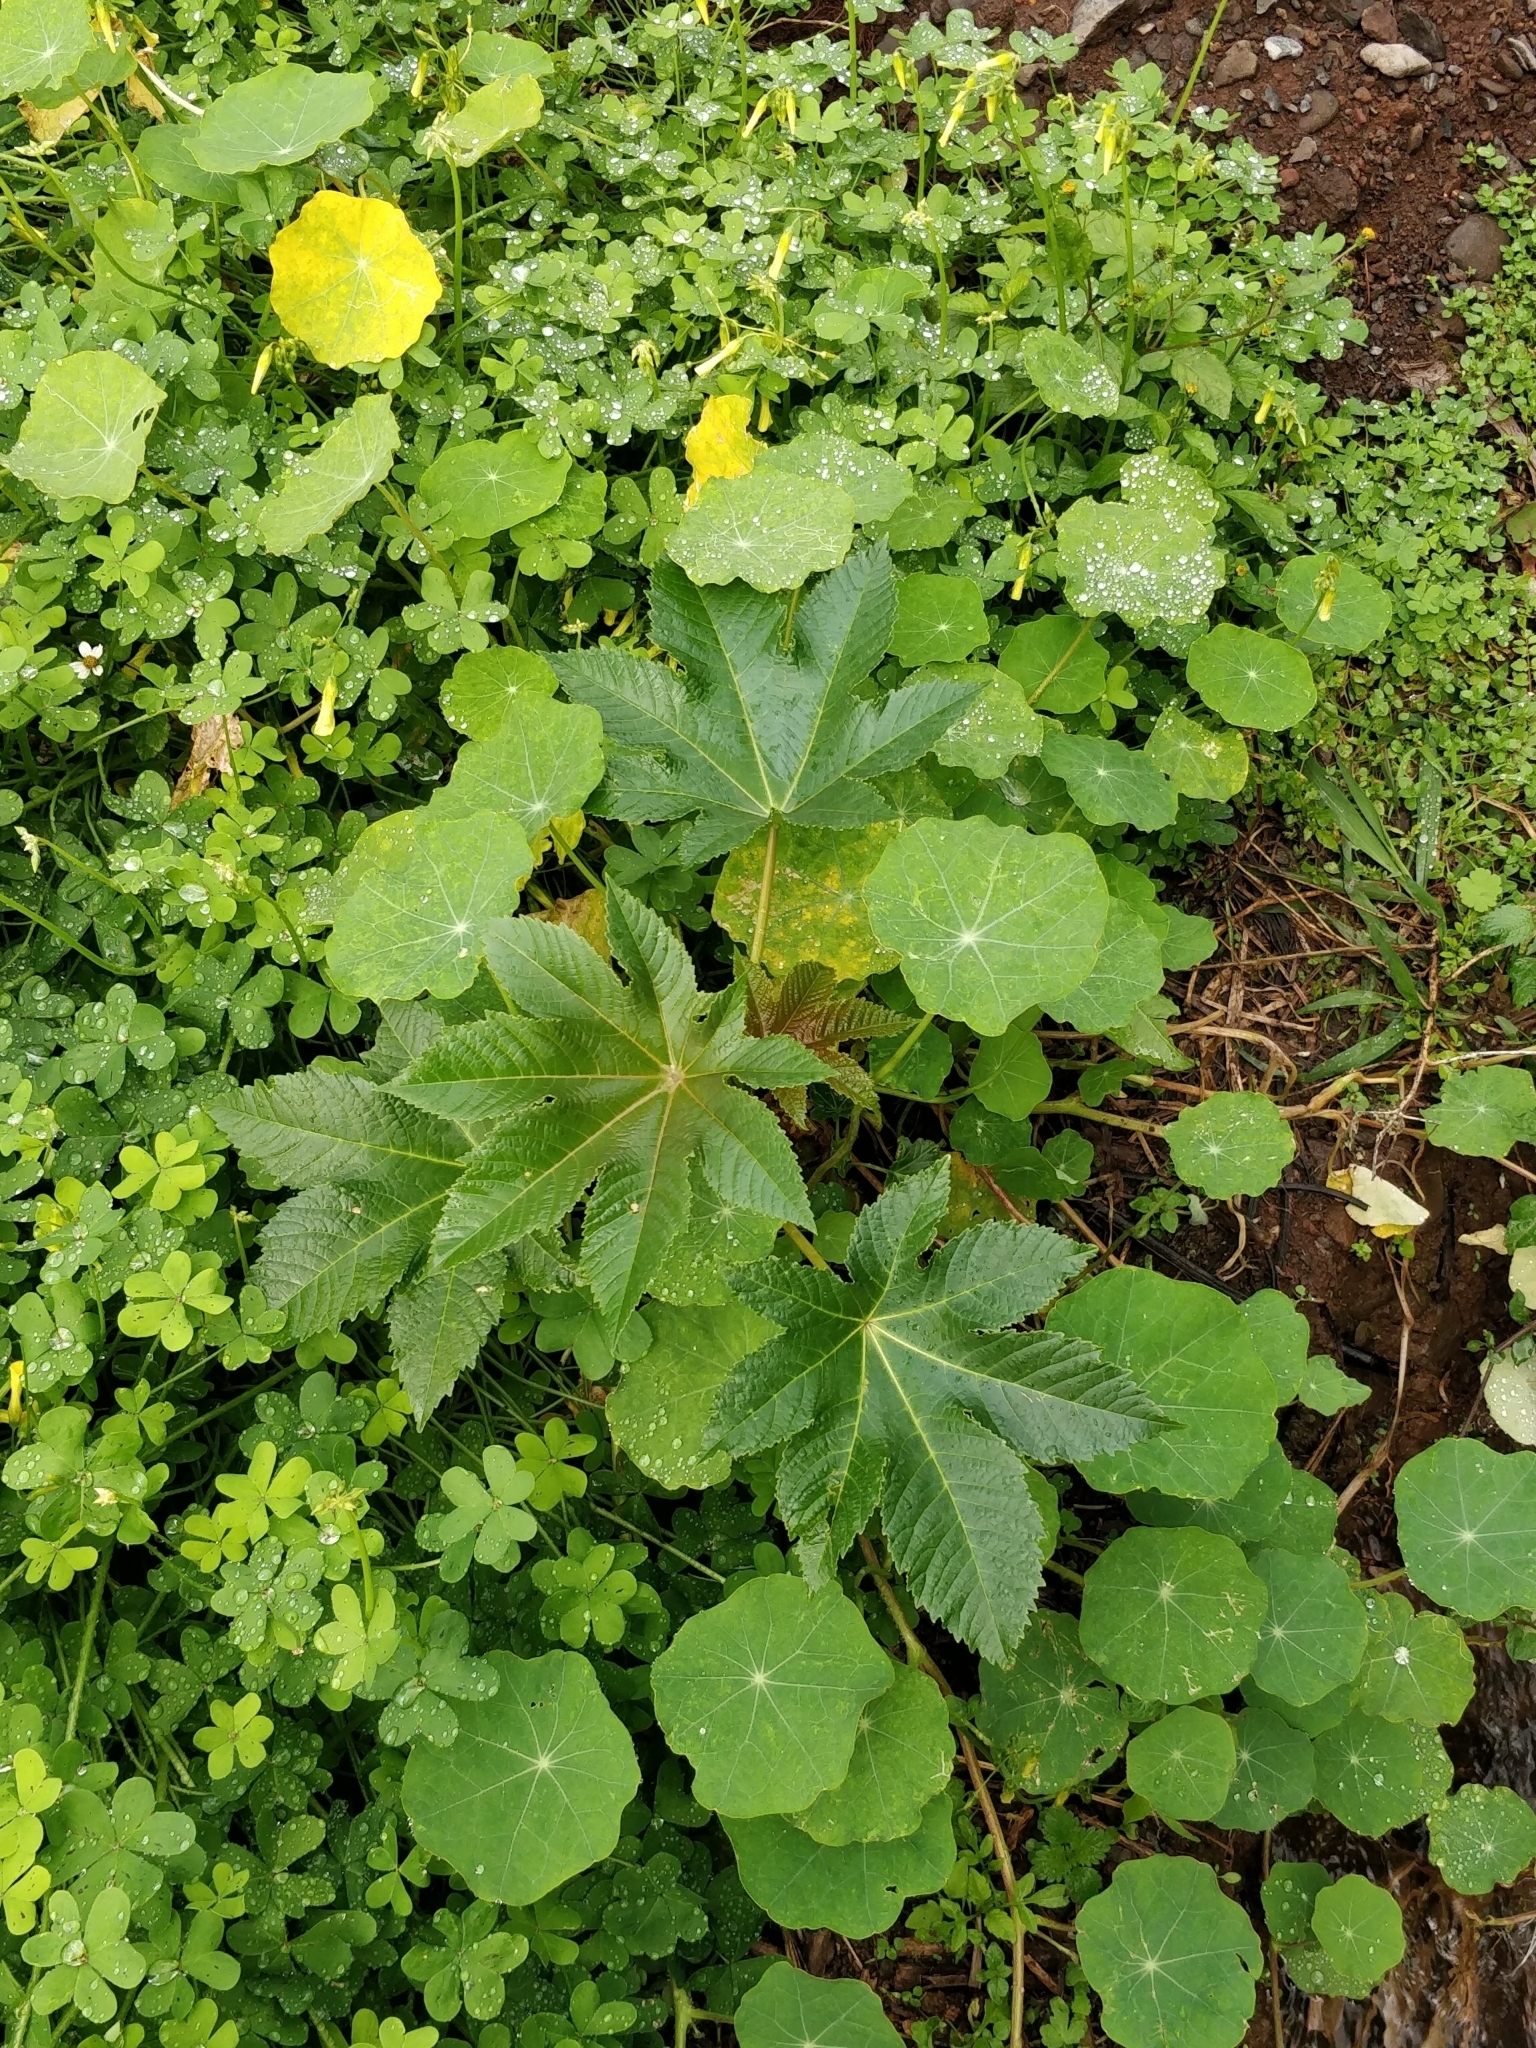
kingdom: Plantae
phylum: Tracheophyta
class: Magnoliopsida
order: Malpighiales
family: Euphorbiaceae
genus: Ricinus
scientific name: Ricinus communis
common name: Castor-oil-plant
